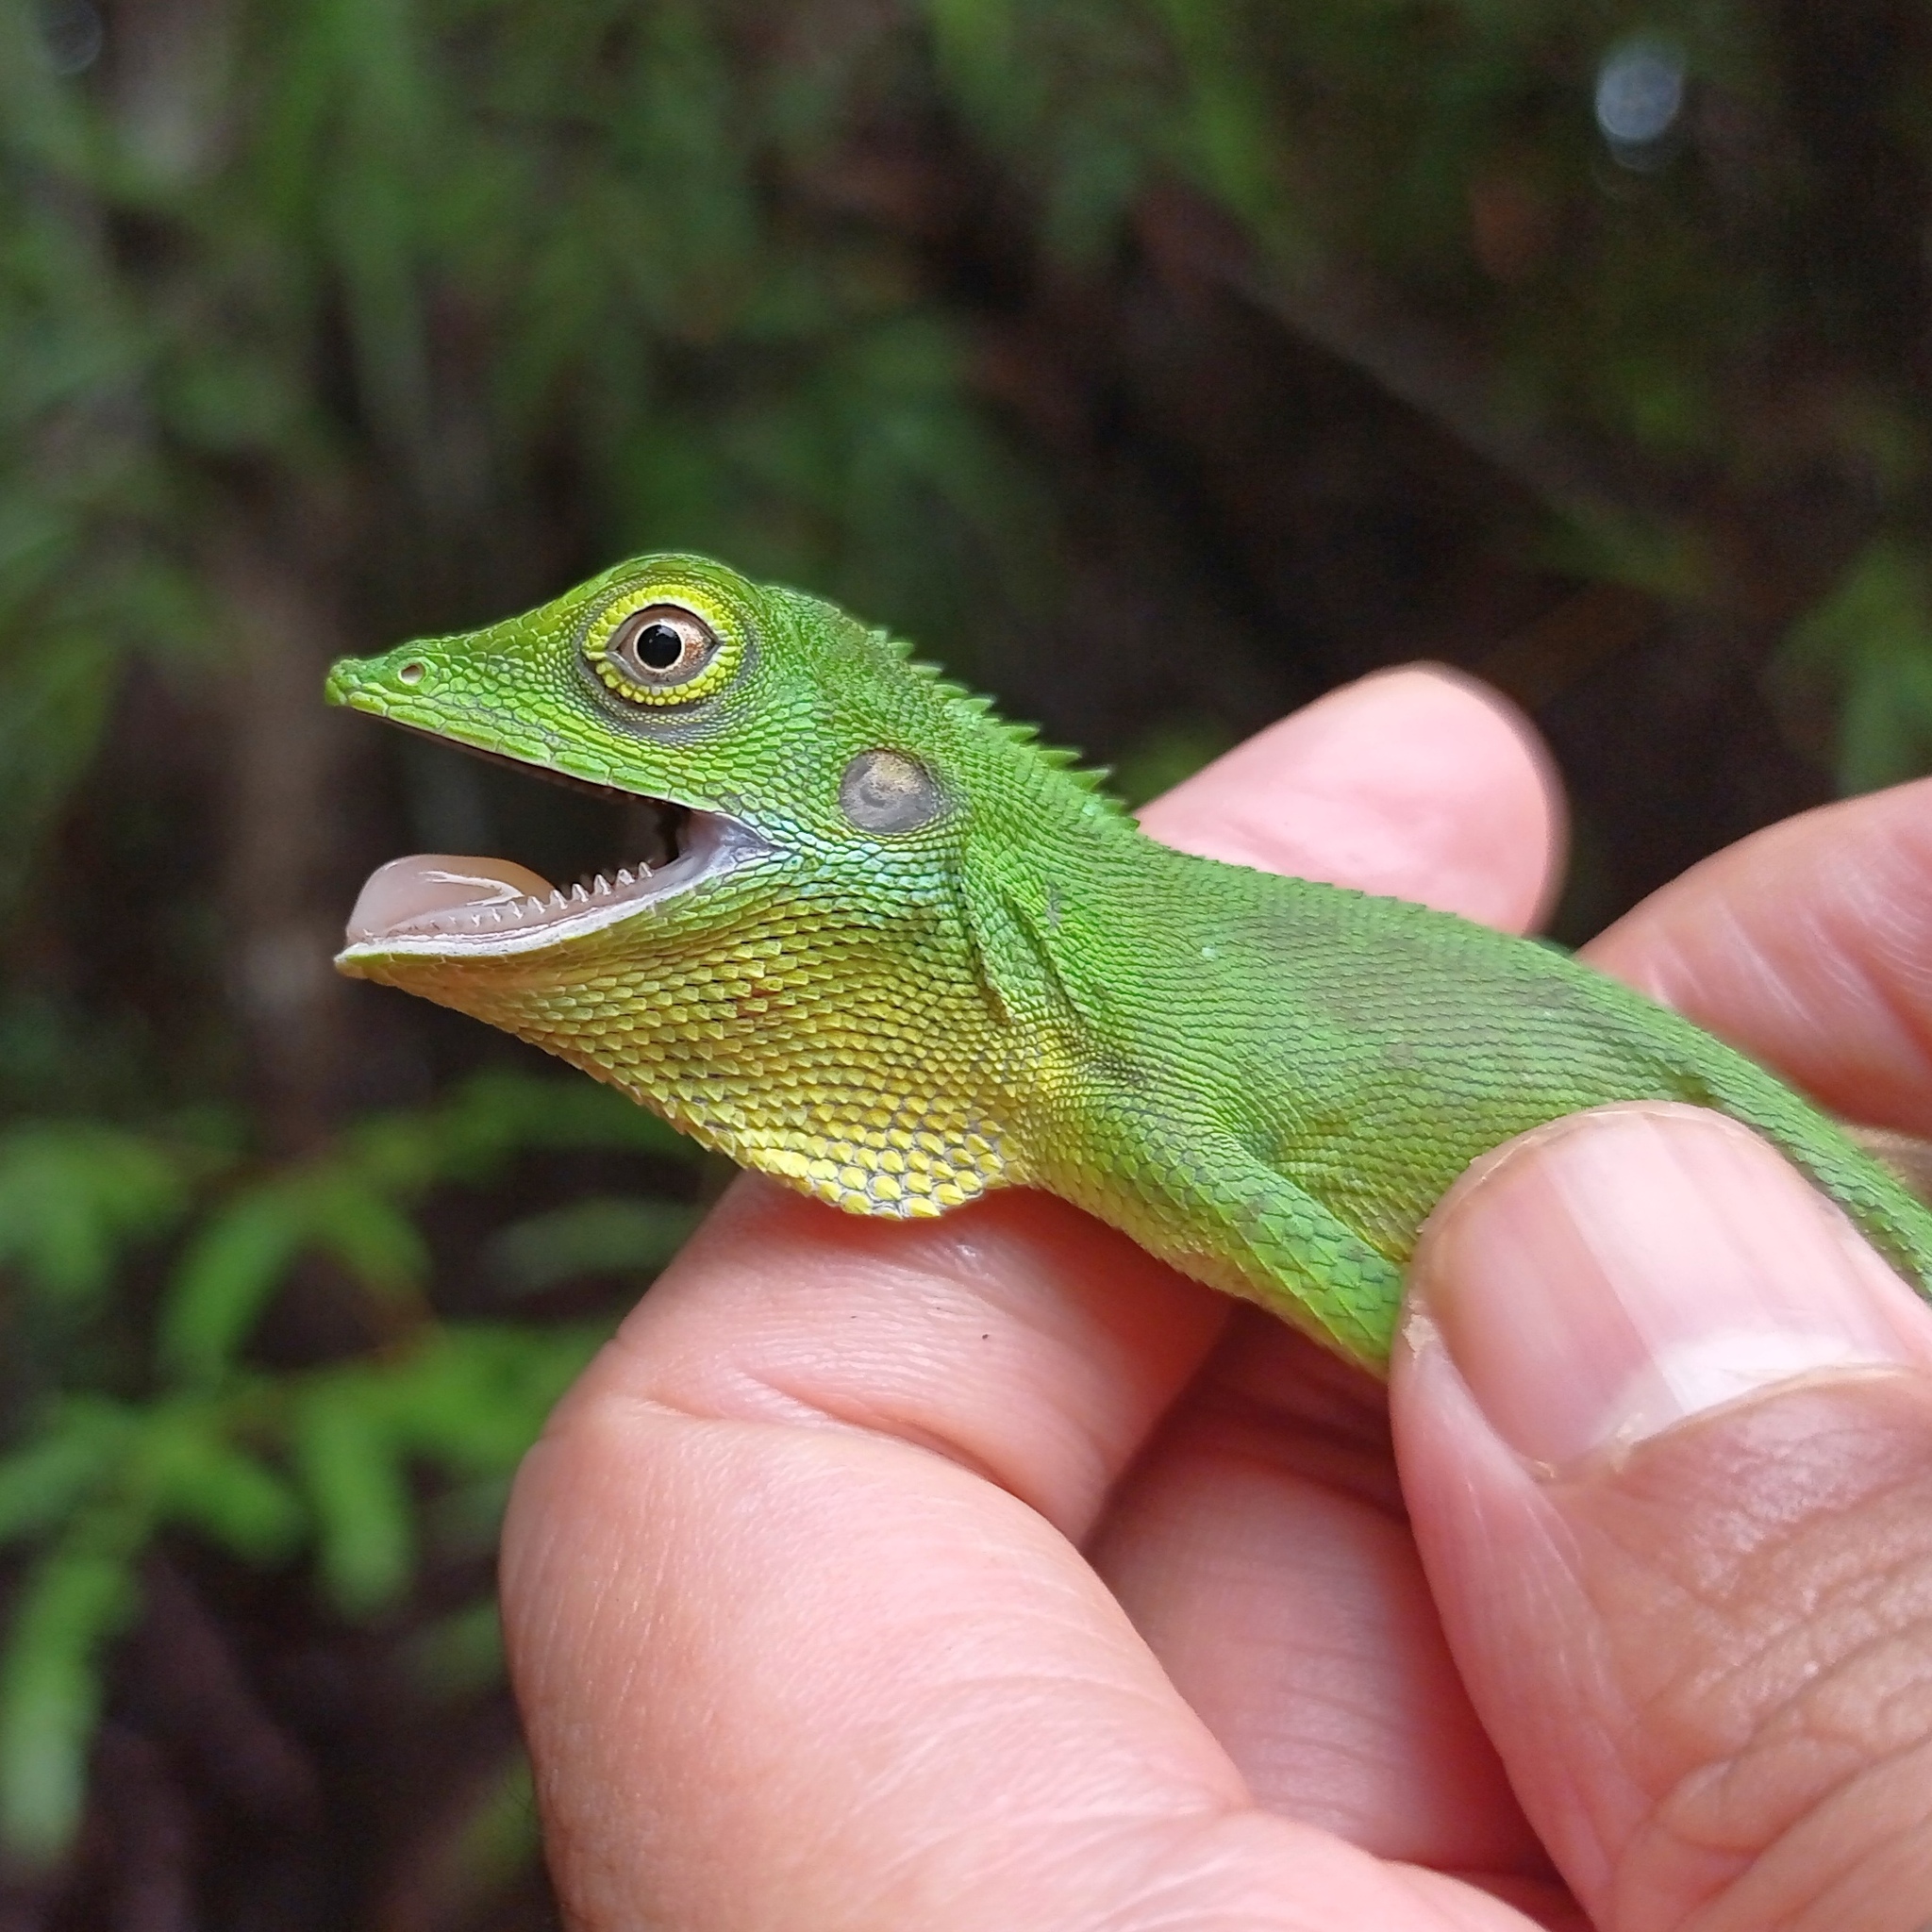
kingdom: Animalia
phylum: Chordata
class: Squamata
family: Agamidae
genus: Bronchocela
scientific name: Bronchocela cristatella
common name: Green crested lizard
